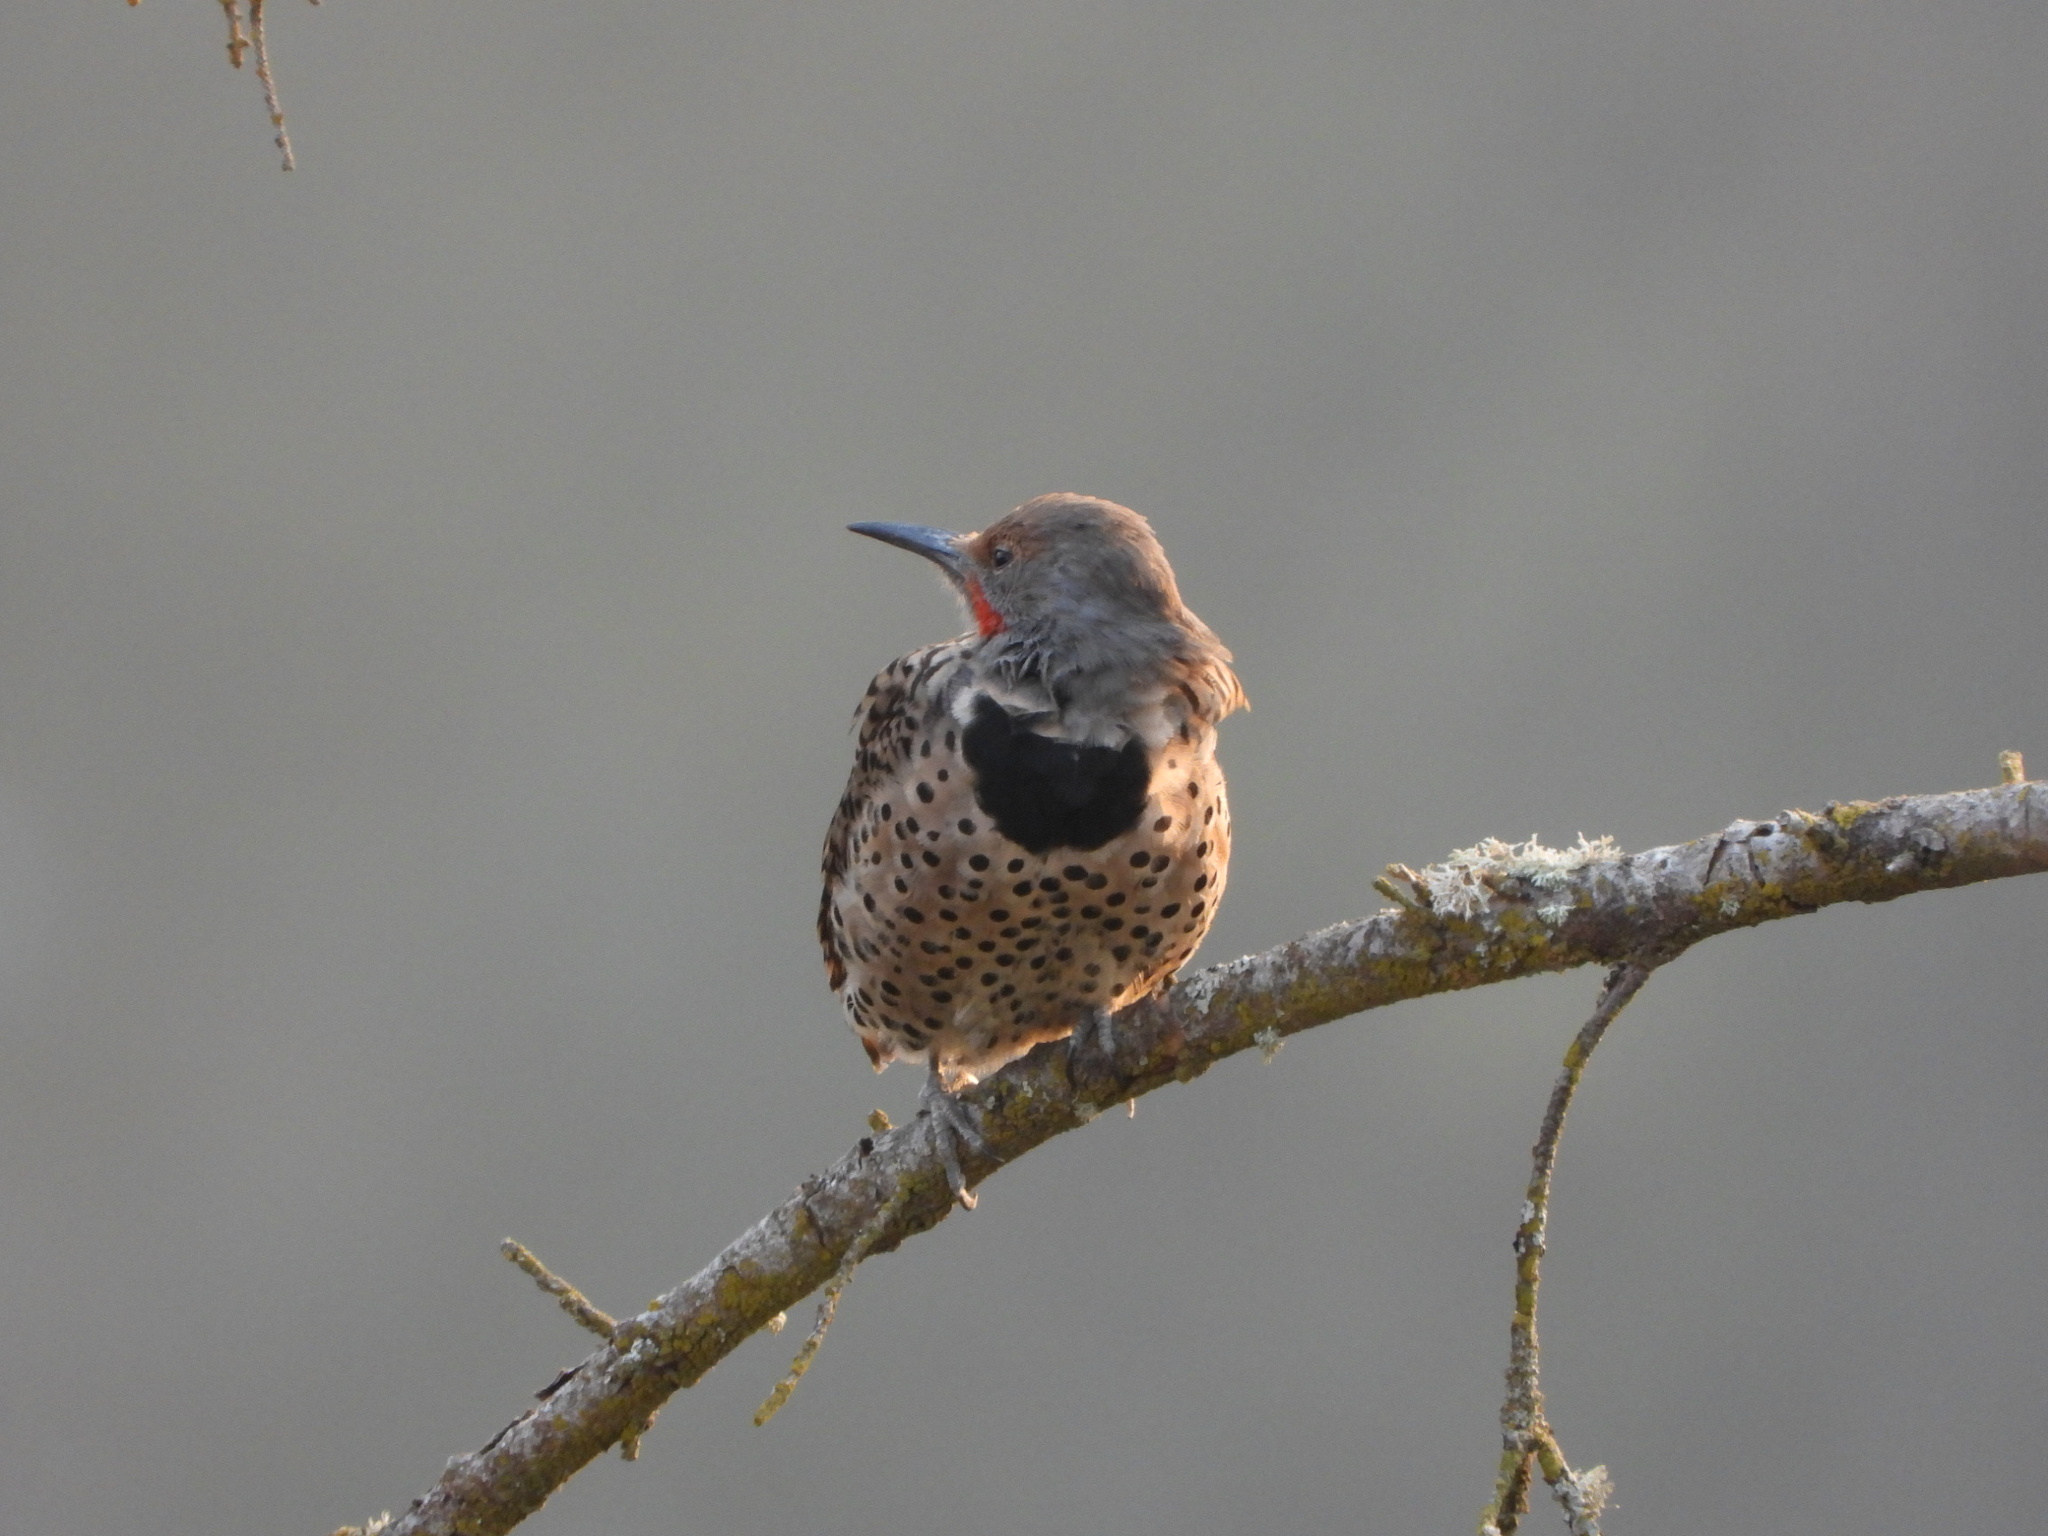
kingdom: Animalia
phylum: Chordata
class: Aves
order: Piciformes
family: Picidae
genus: Colaptes
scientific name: Colaptes auratus
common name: Northern flicker
